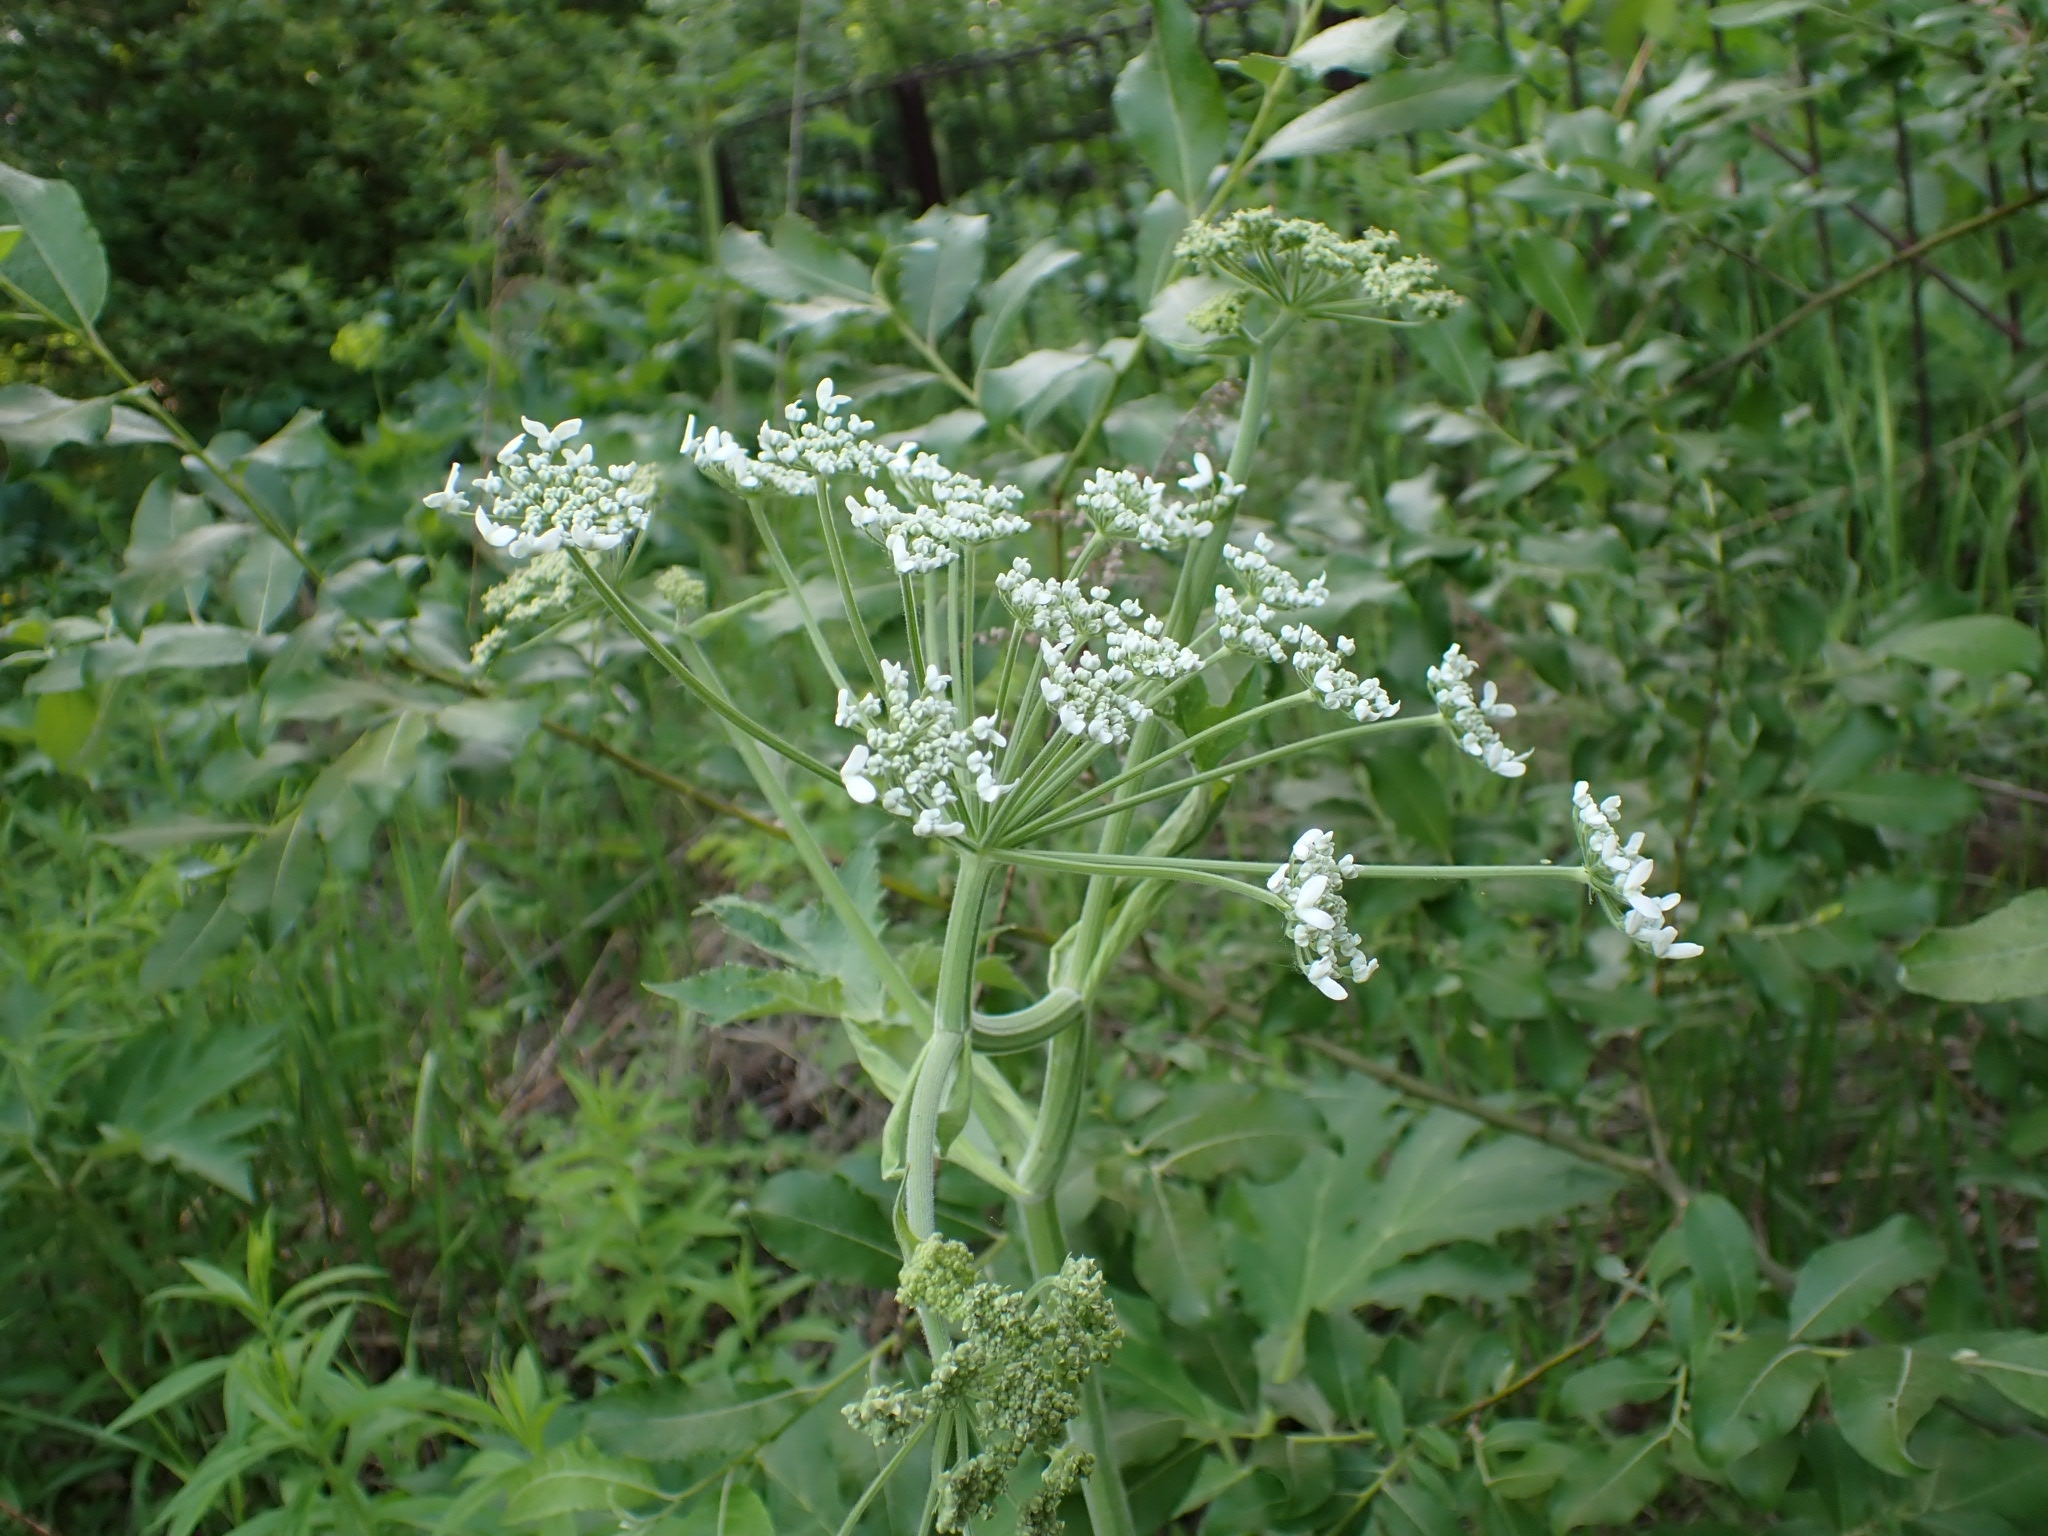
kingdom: Plantae
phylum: Tracheophyta
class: Magnoliopsida
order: Apiales
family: Apiaceae
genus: Heracleum
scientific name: Heracleum dissectum
